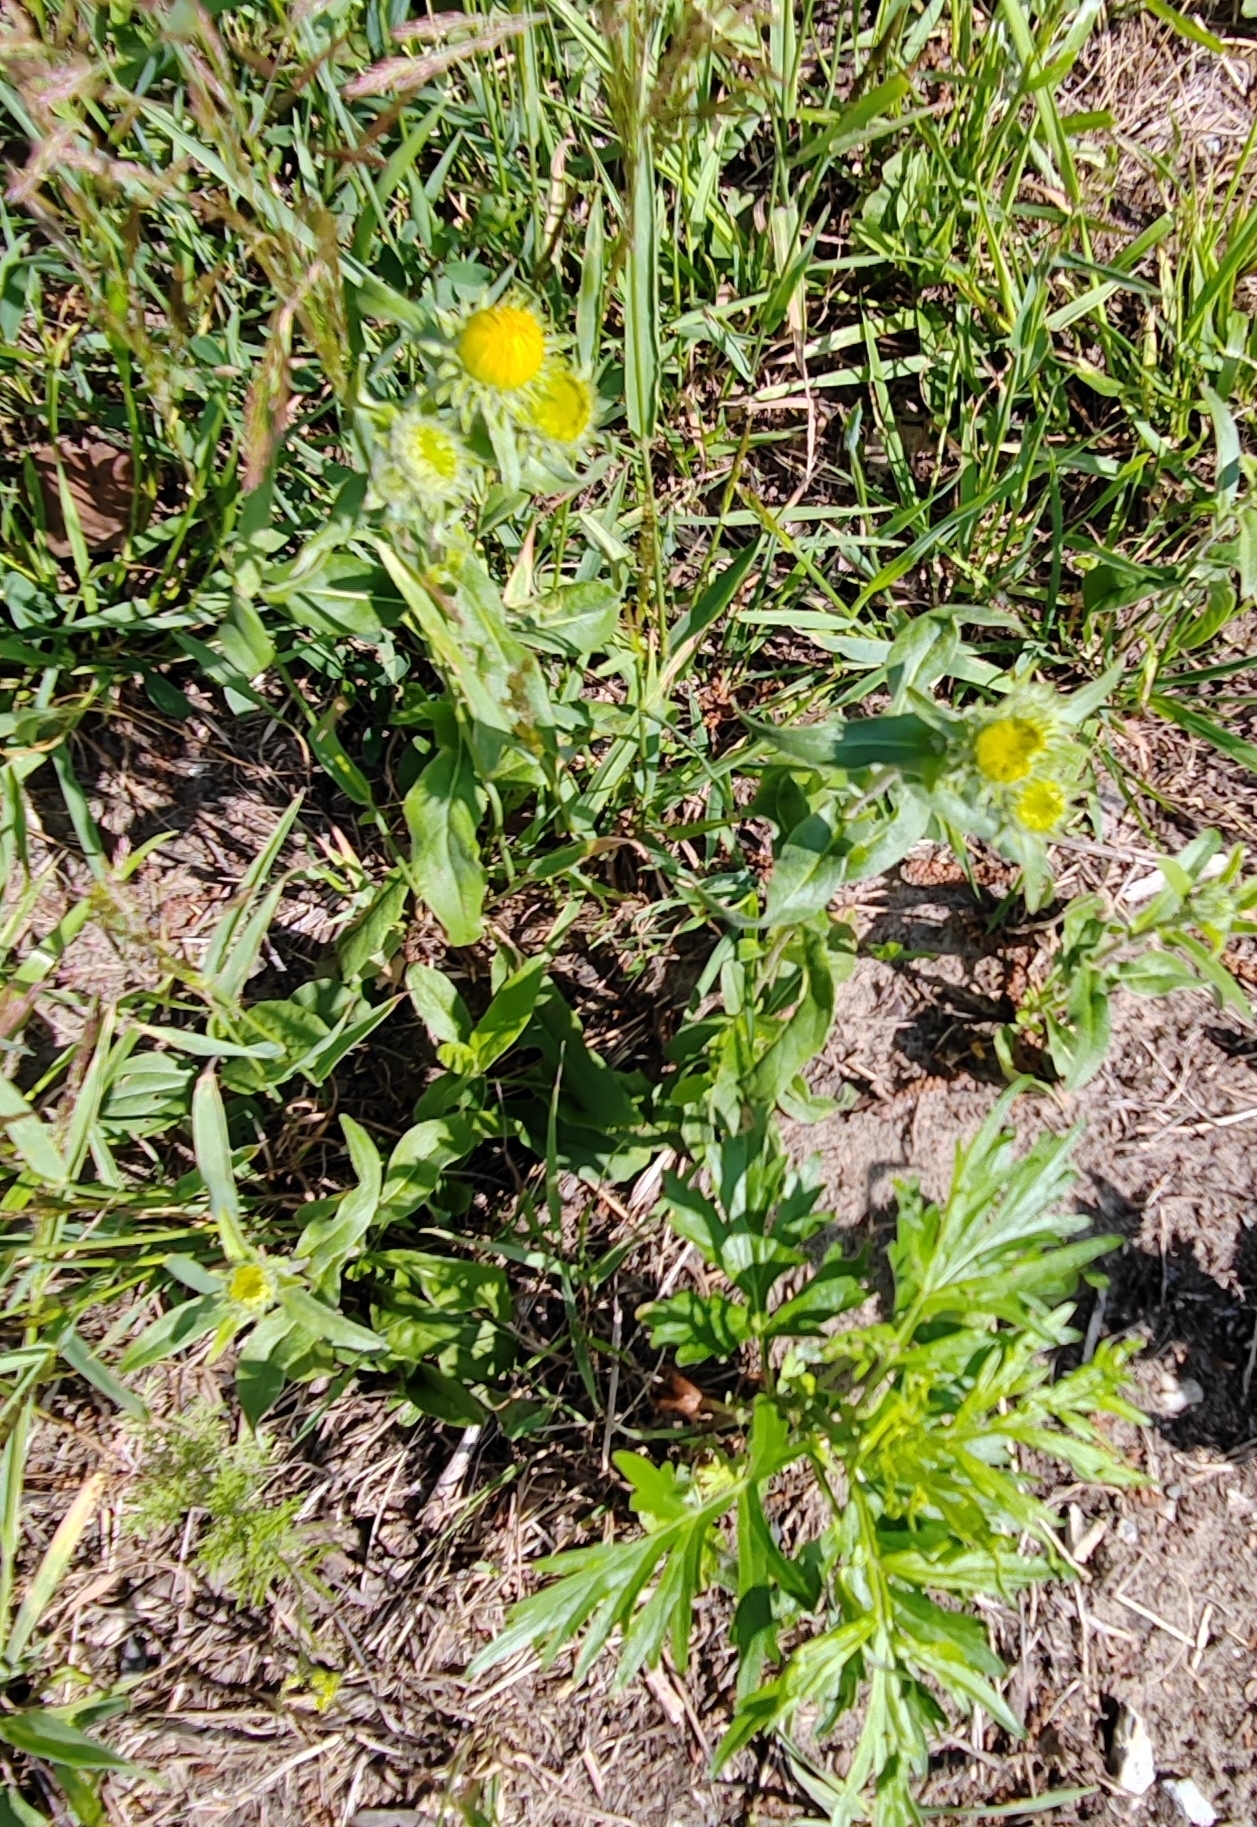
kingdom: Plantae
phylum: Tracheophyta
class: Magnoliopsida
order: Asterales
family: Asteraceae
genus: Pentanema
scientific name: Pentanema britannicum
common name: British elecampane
